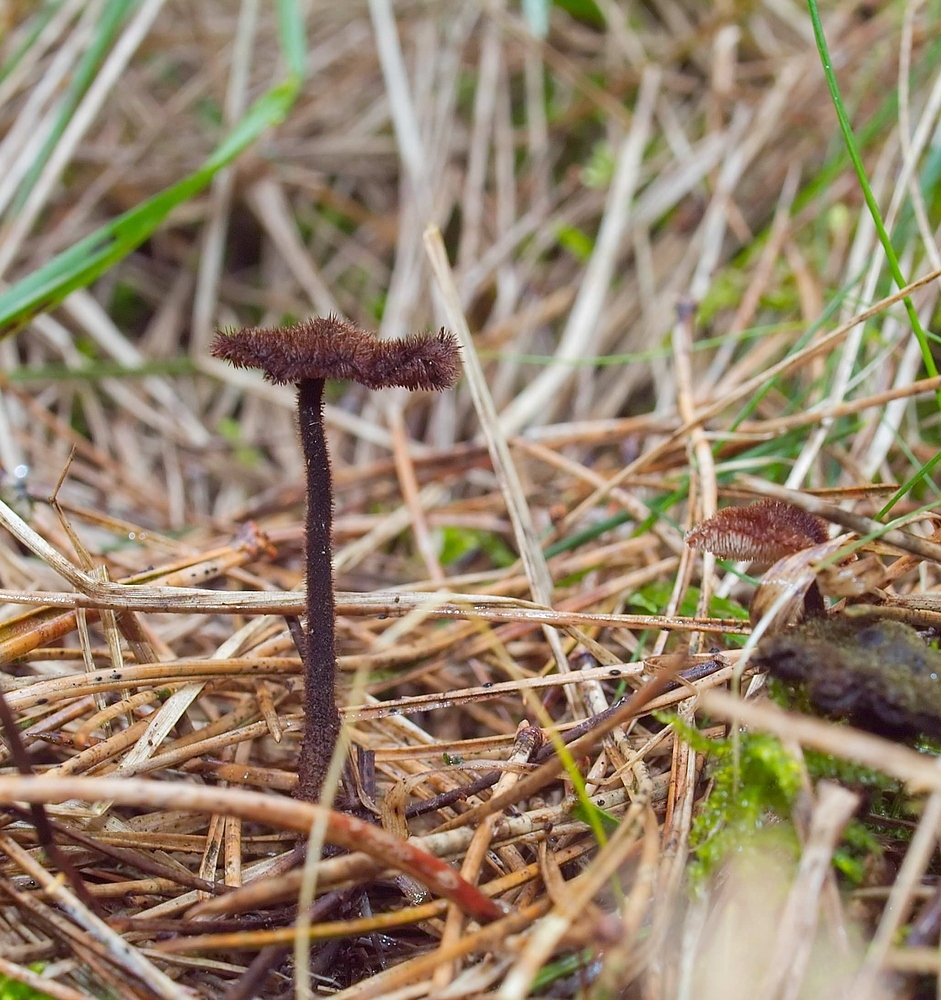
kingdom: Fungi
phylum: Basidiomycota
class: Agaricomycetes
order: Russulales
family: Auriscalpiaceae
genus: Auriscalpium
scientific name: Auriscalpium vulgare
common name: Earpick fungus
